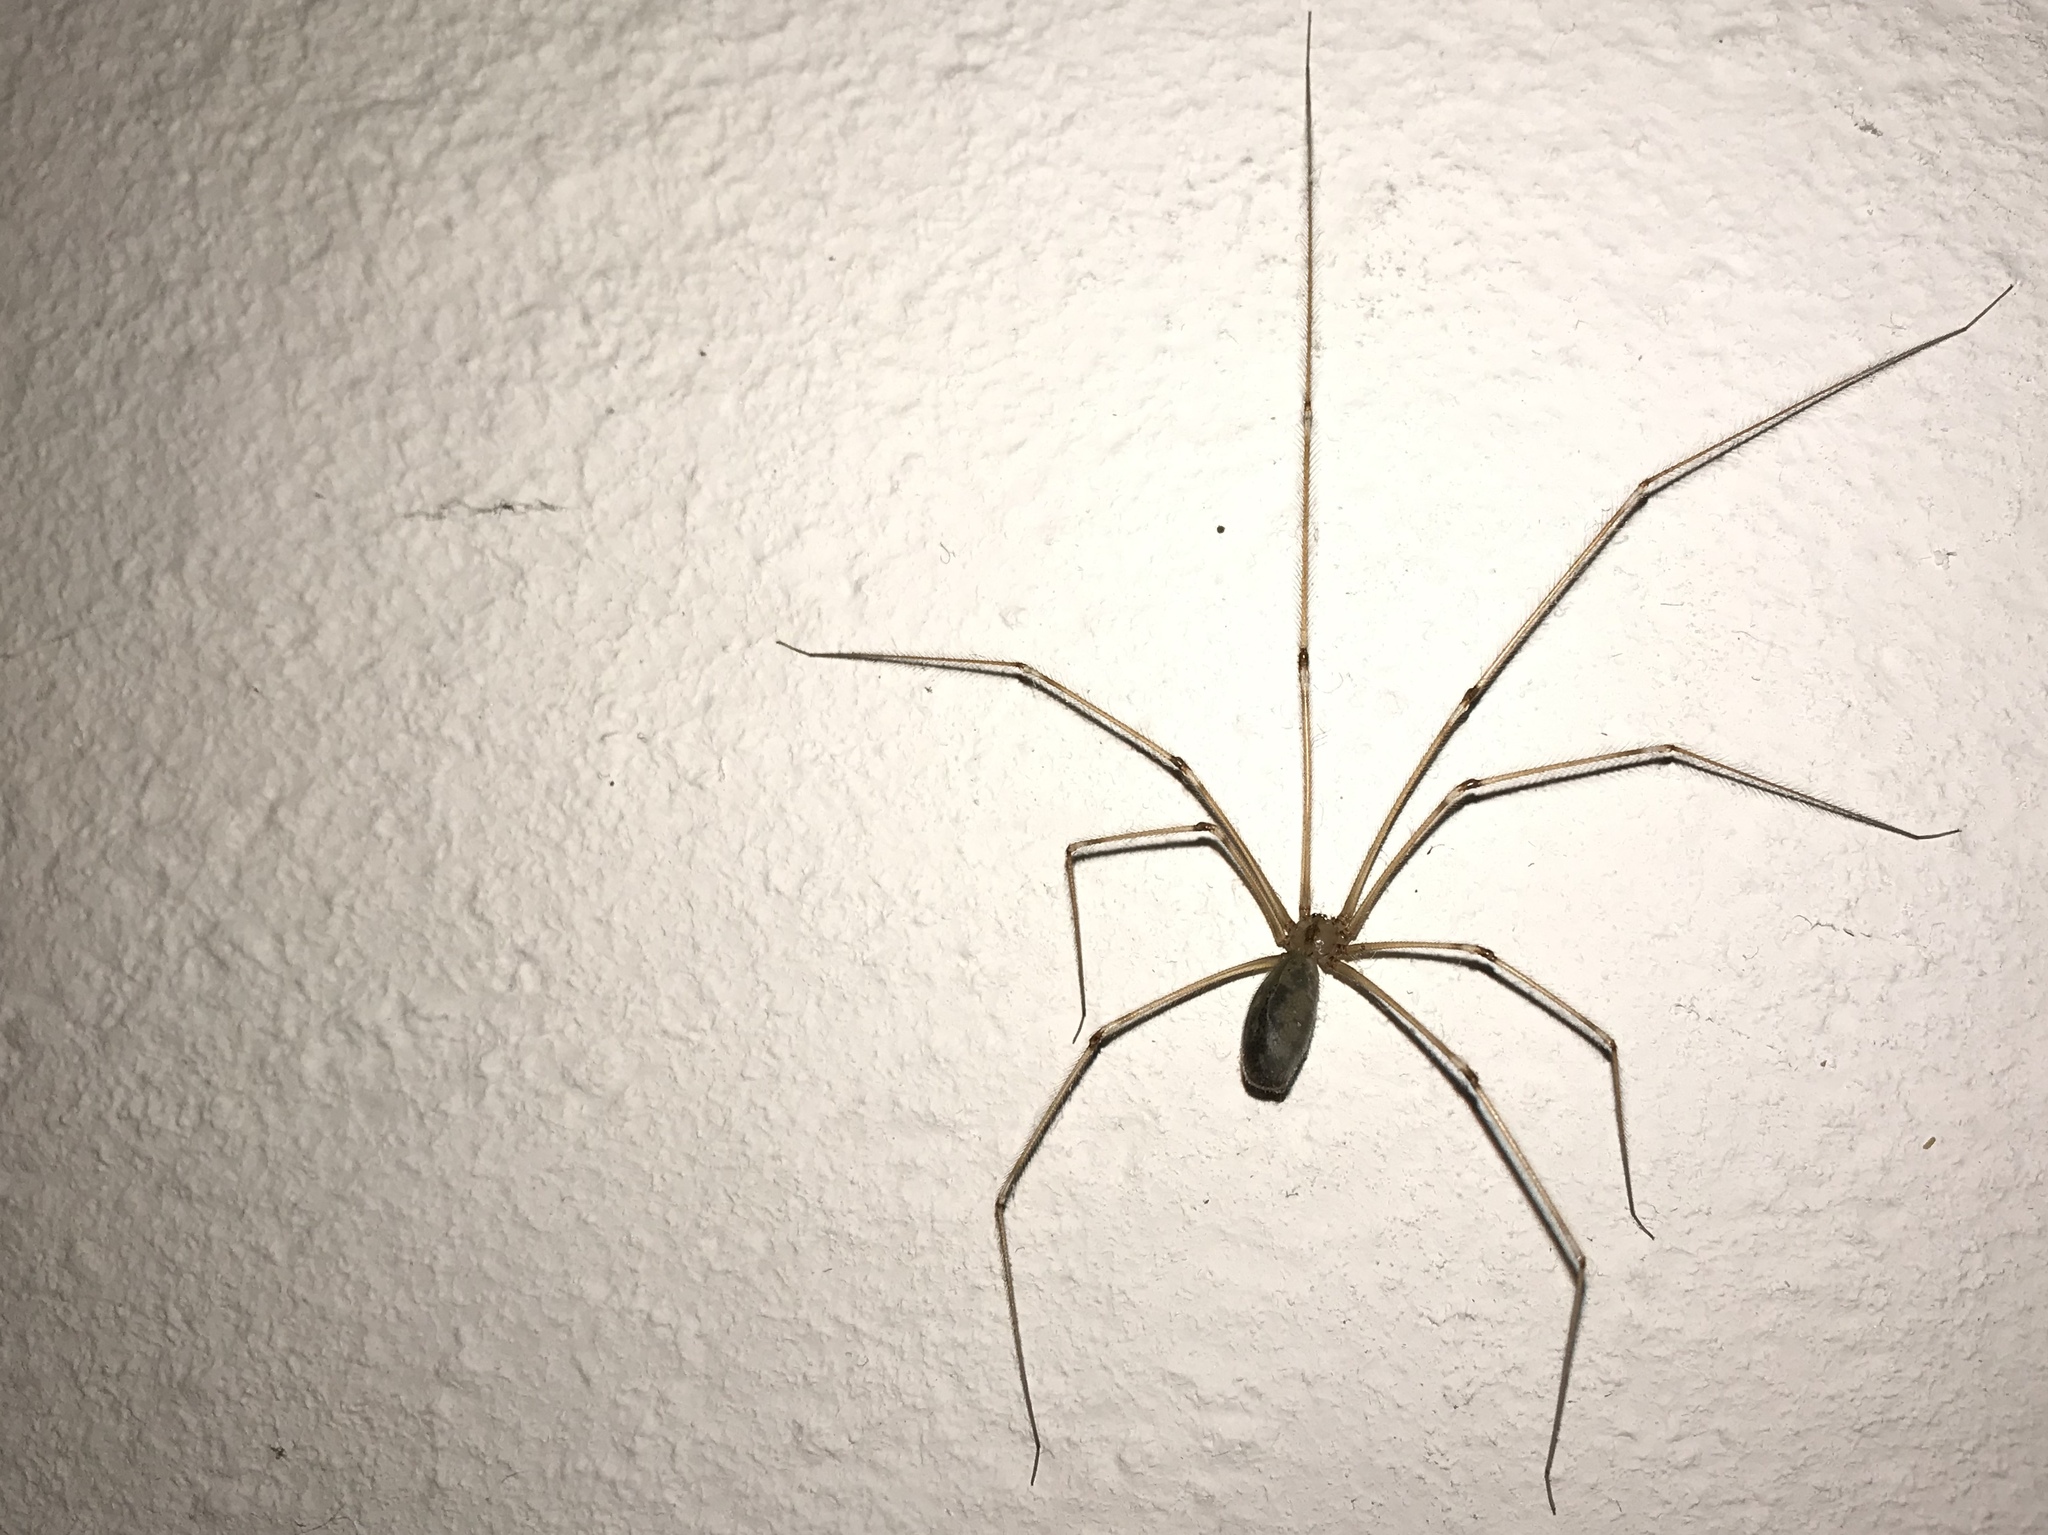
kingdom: Animalia
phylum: Arthropoda
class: Arachnida
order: Araneae
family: Pholcidae
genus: Pholcus
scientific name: Pholcus phalangioides
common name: Longbodied cellar spider
